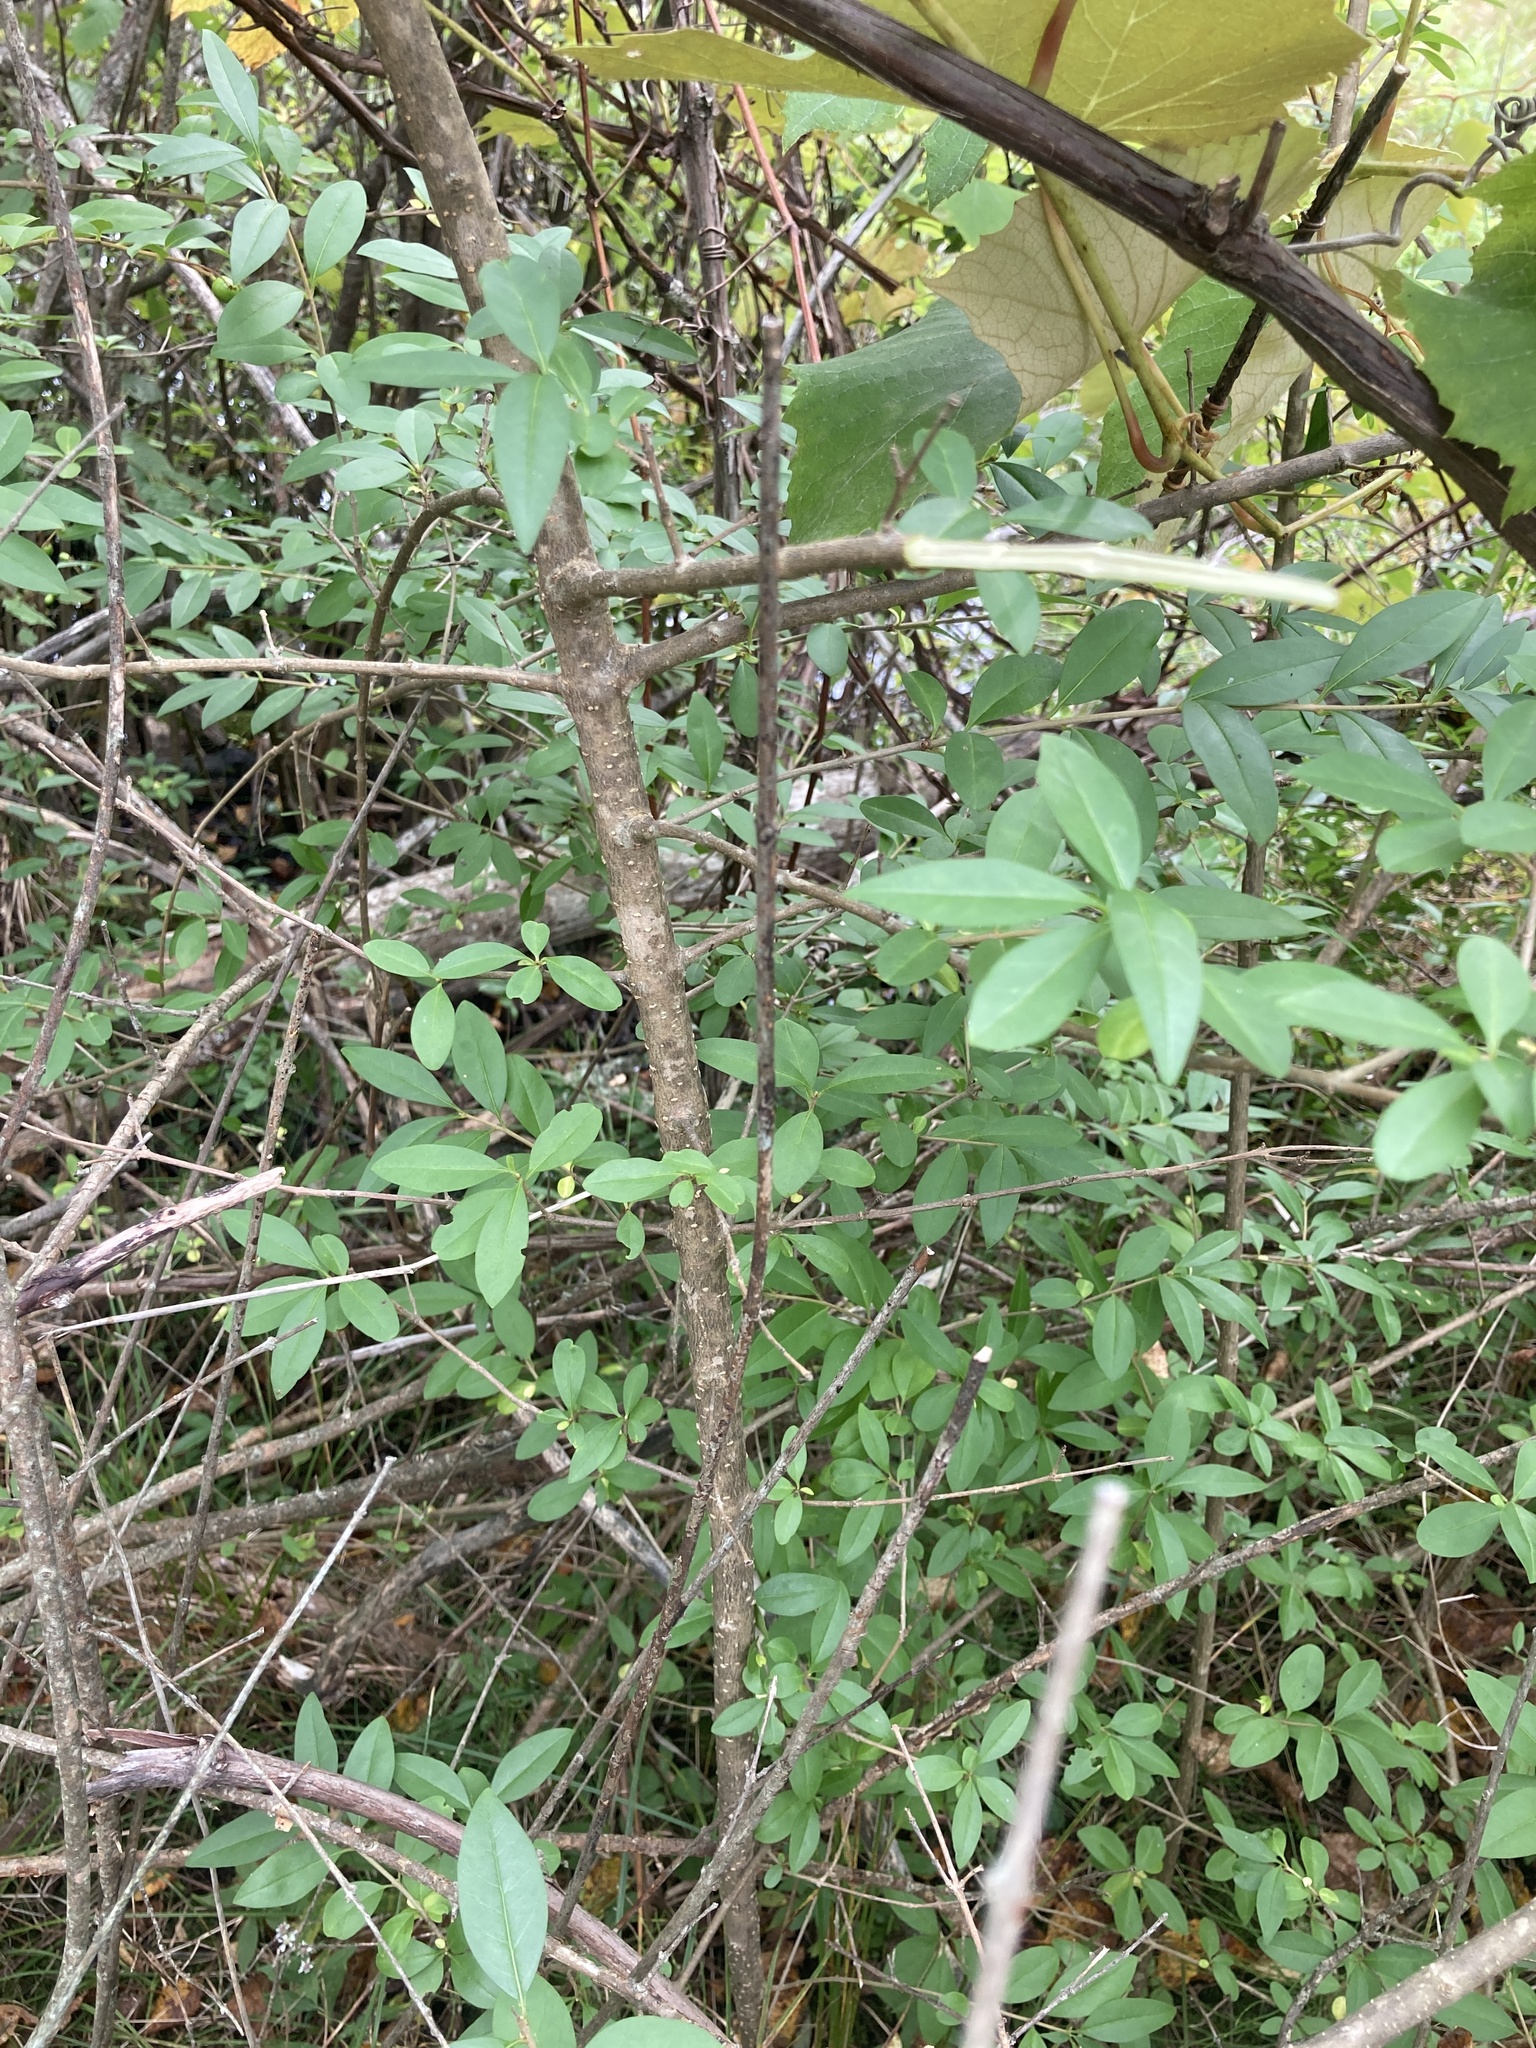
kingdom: Plantae
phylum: Tracheophyta
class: Magnoliopsida
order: Lamiales
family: Oleaceae
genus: Ligustrum
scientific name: Ligustrum vulgare
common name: Wild privet
